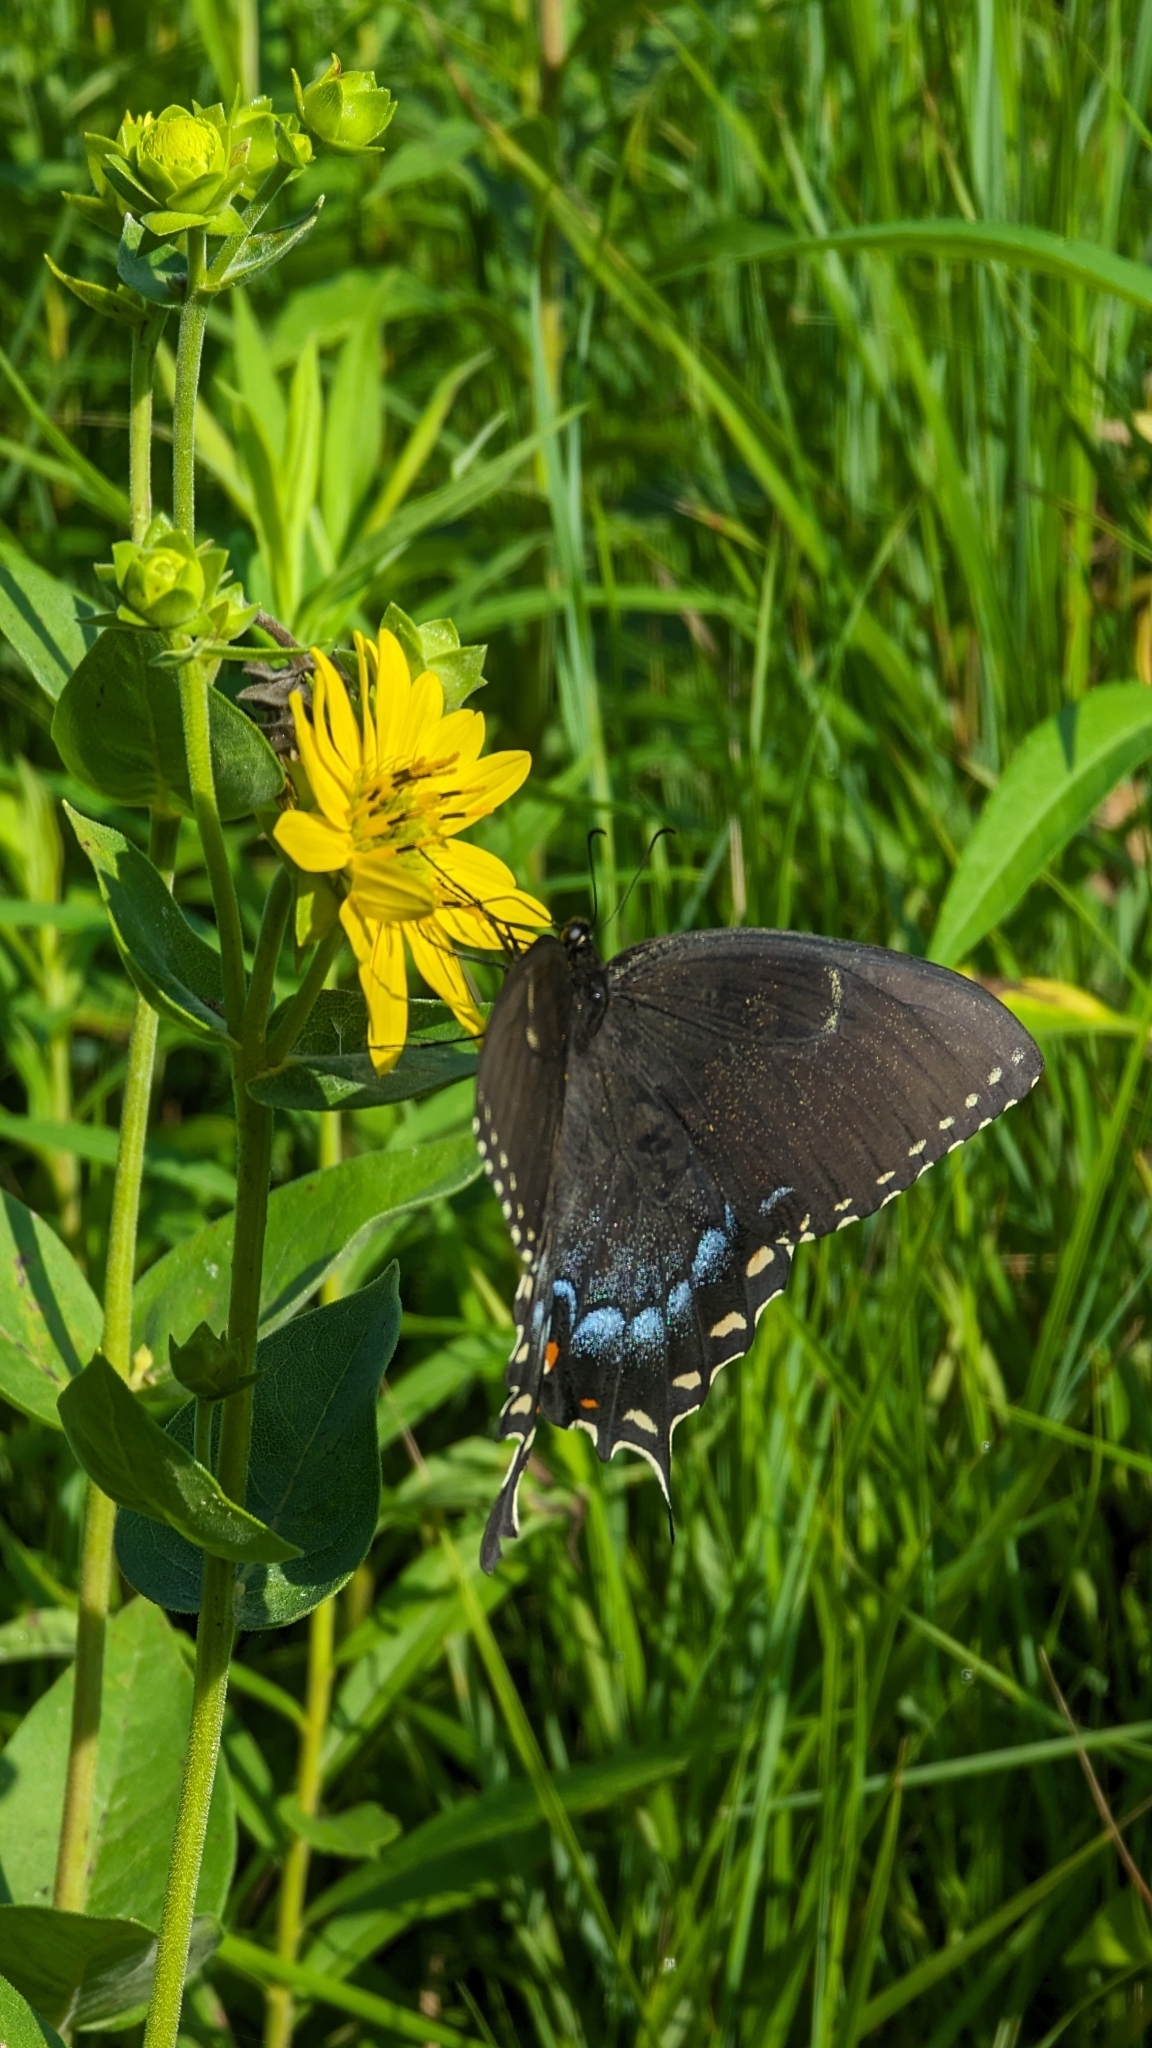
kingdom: Animalia
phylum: Arthropoda
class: Insecta
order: Lepidoptera
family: Papilionidae
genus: Papilio
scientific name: Papilio glaucus
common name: Tiger swallowtail
